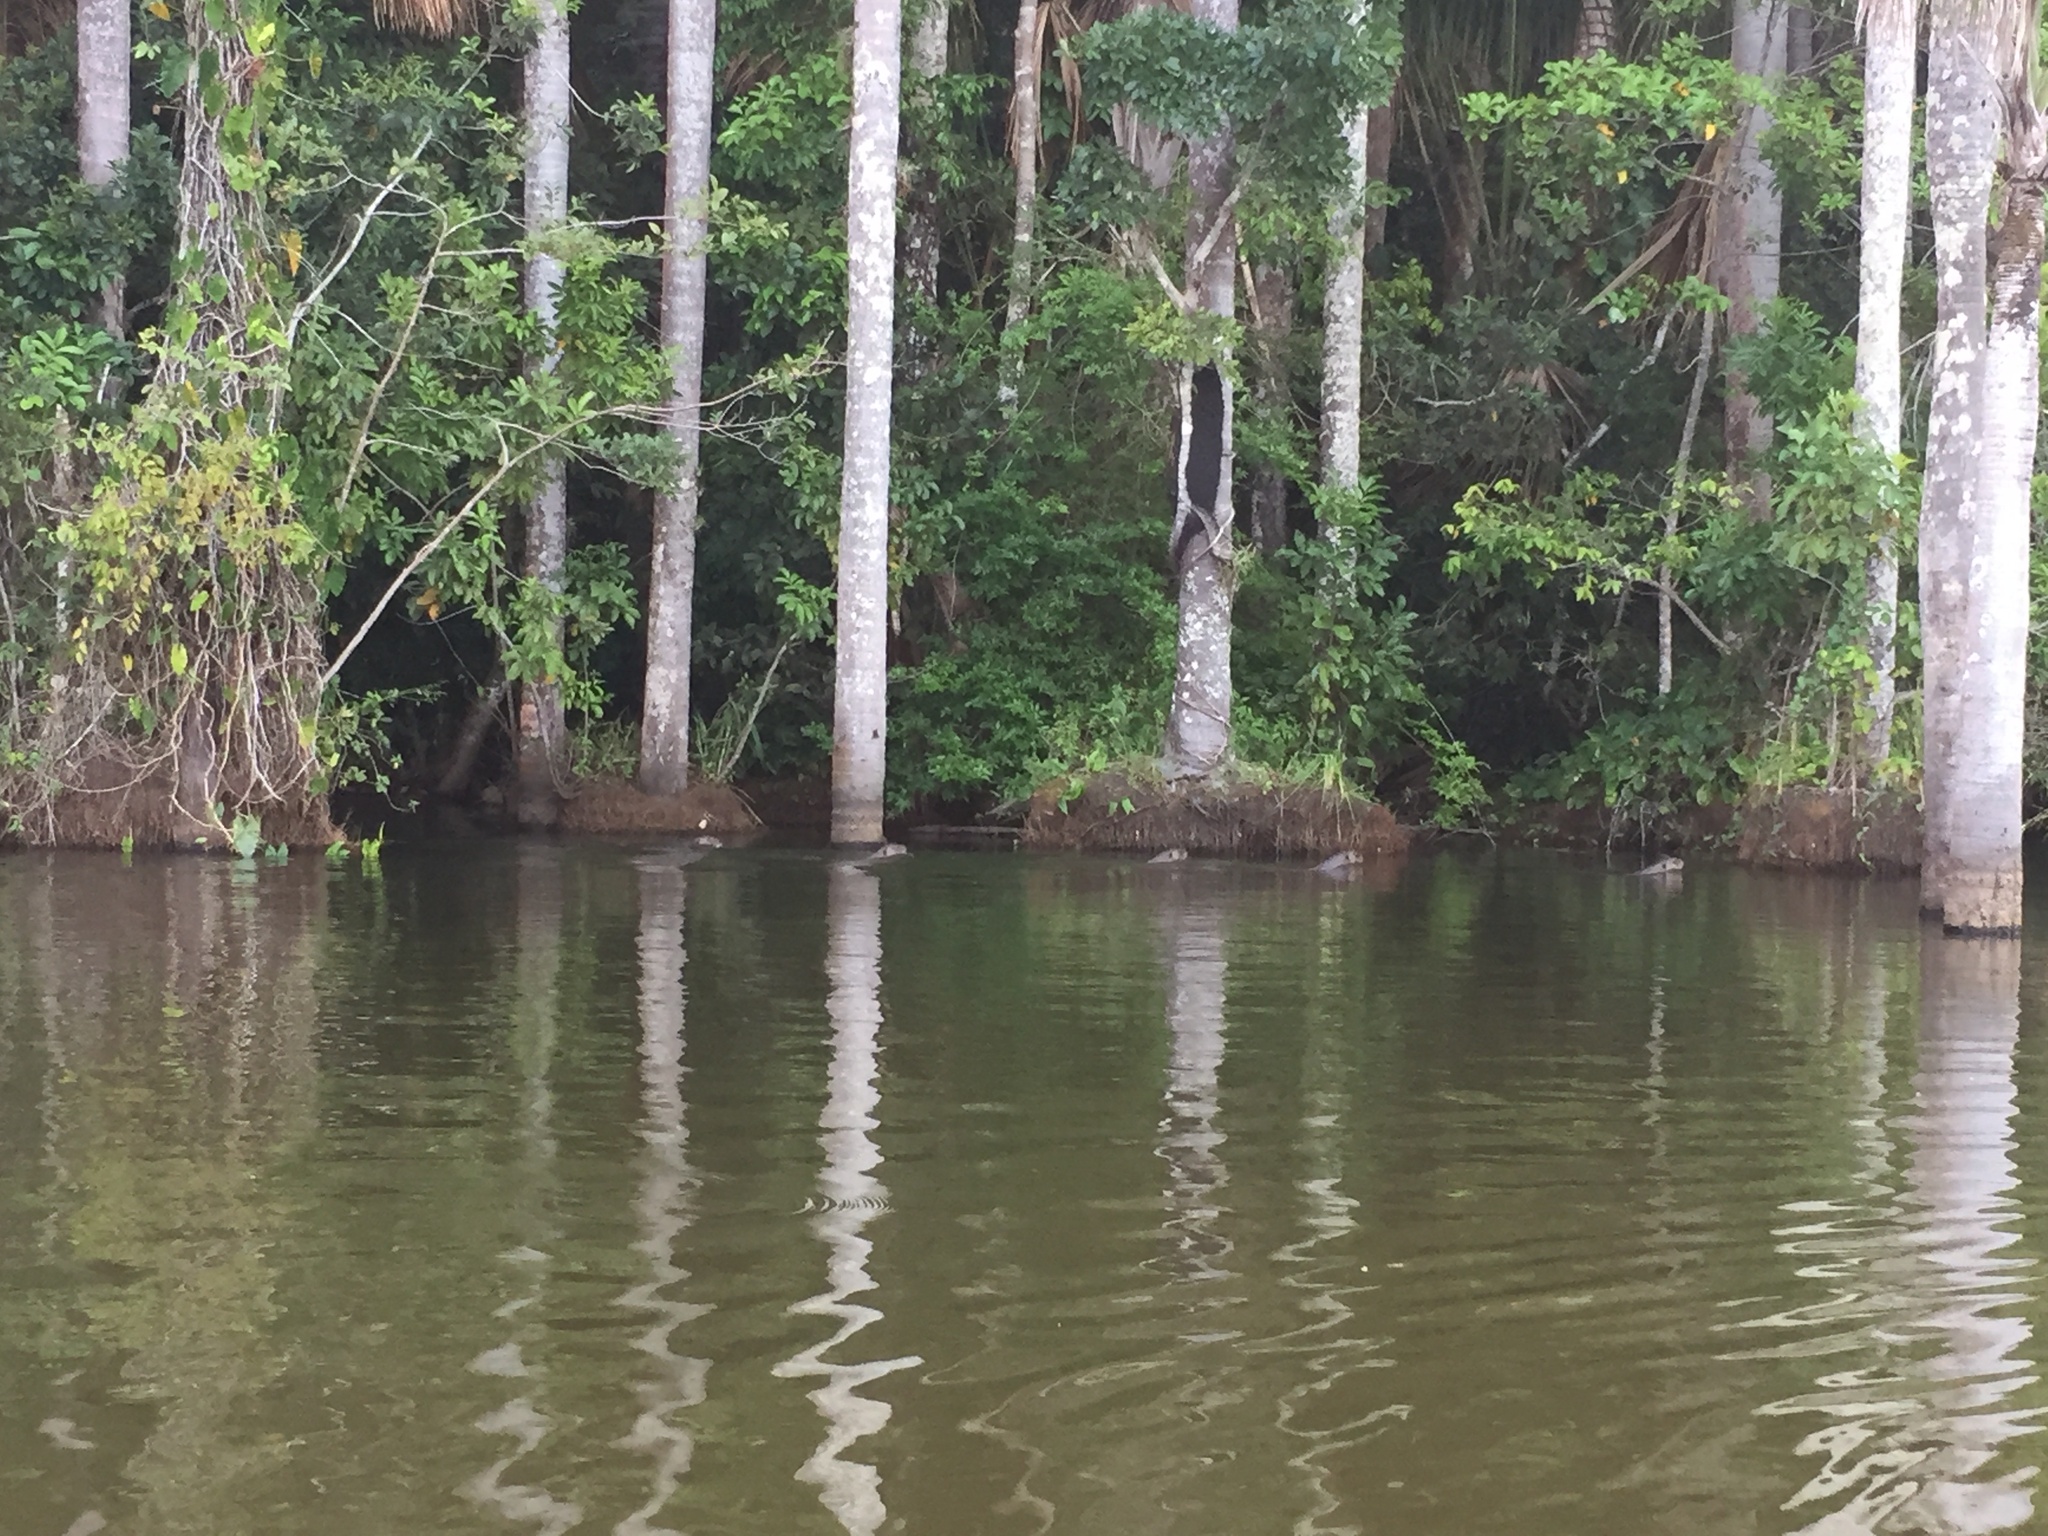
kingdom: Animalia
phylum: Chordata
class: Mammalia
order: Carnivora
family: Mustelidae
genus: Pteronura
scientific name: Pteronura brasiliensis
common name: Giant otter
